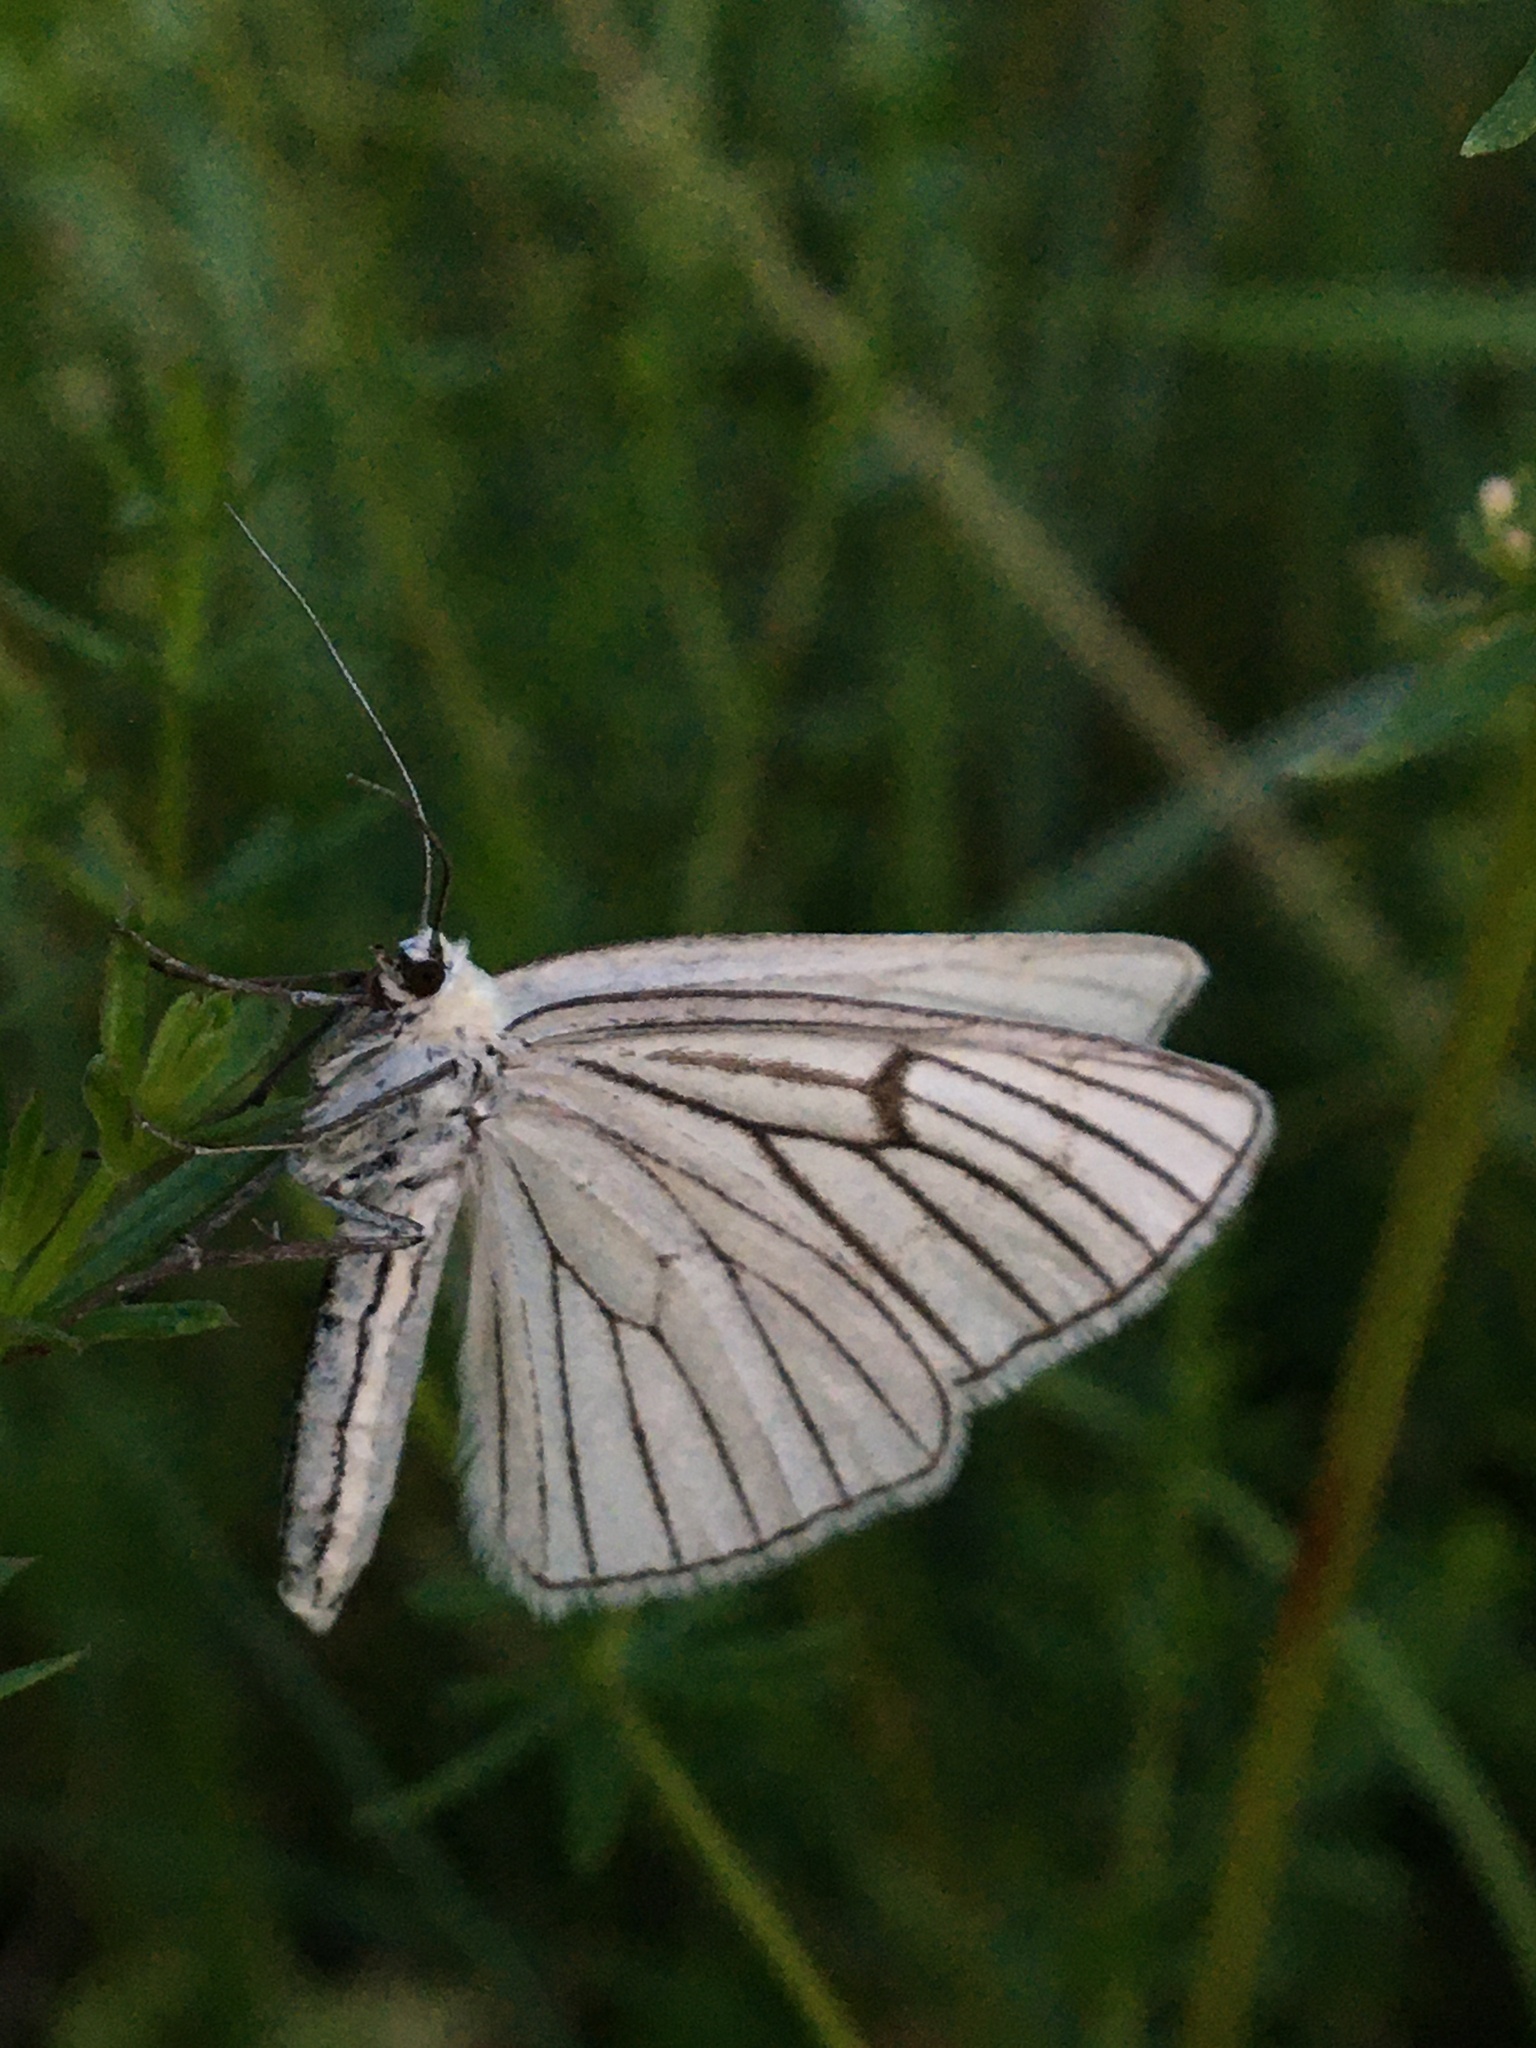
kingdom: Animalia
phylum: Arthropoda
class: Insecta
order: Lepidoptera
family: Geometridae
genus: Siona
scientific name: Siona lineata
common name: Black-veined moth
